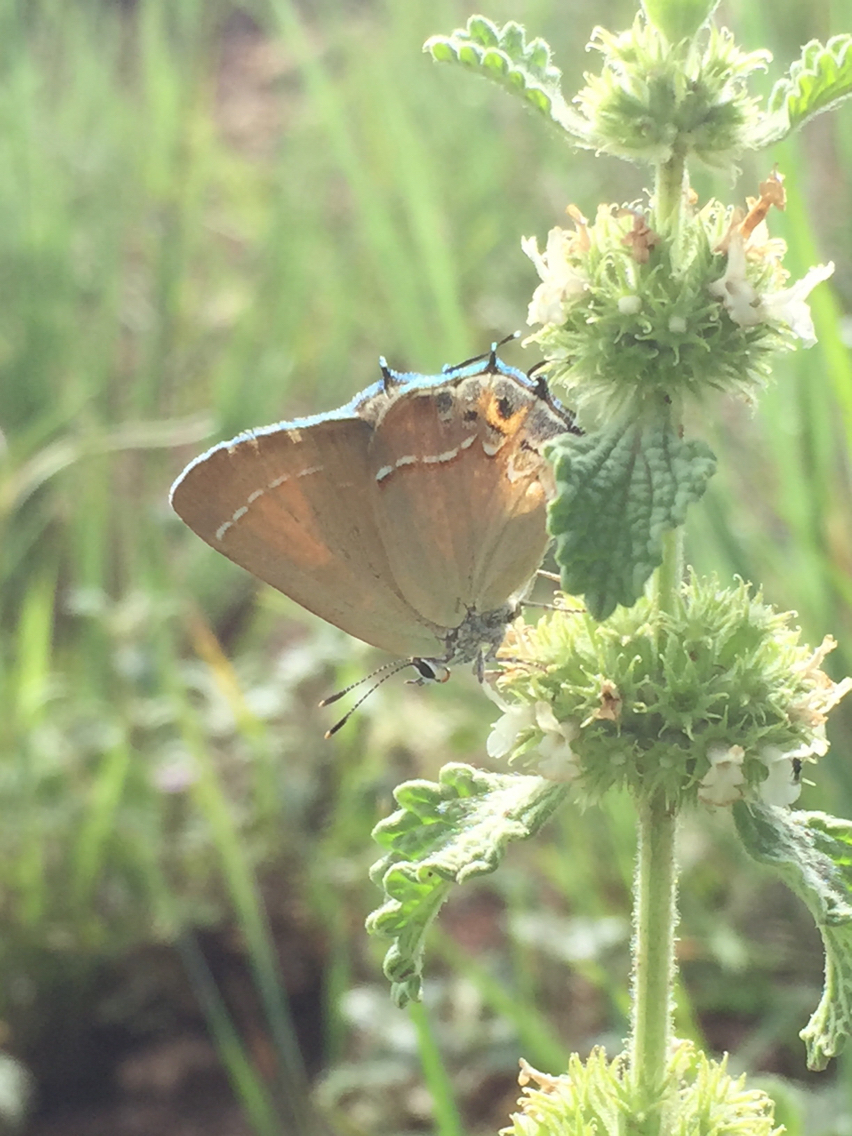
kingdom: Animalia
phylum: Arthropoda
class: Insecta
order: Lepidoptera
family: Lycaenidae
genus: Mitoura
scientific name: Mitoura siva
